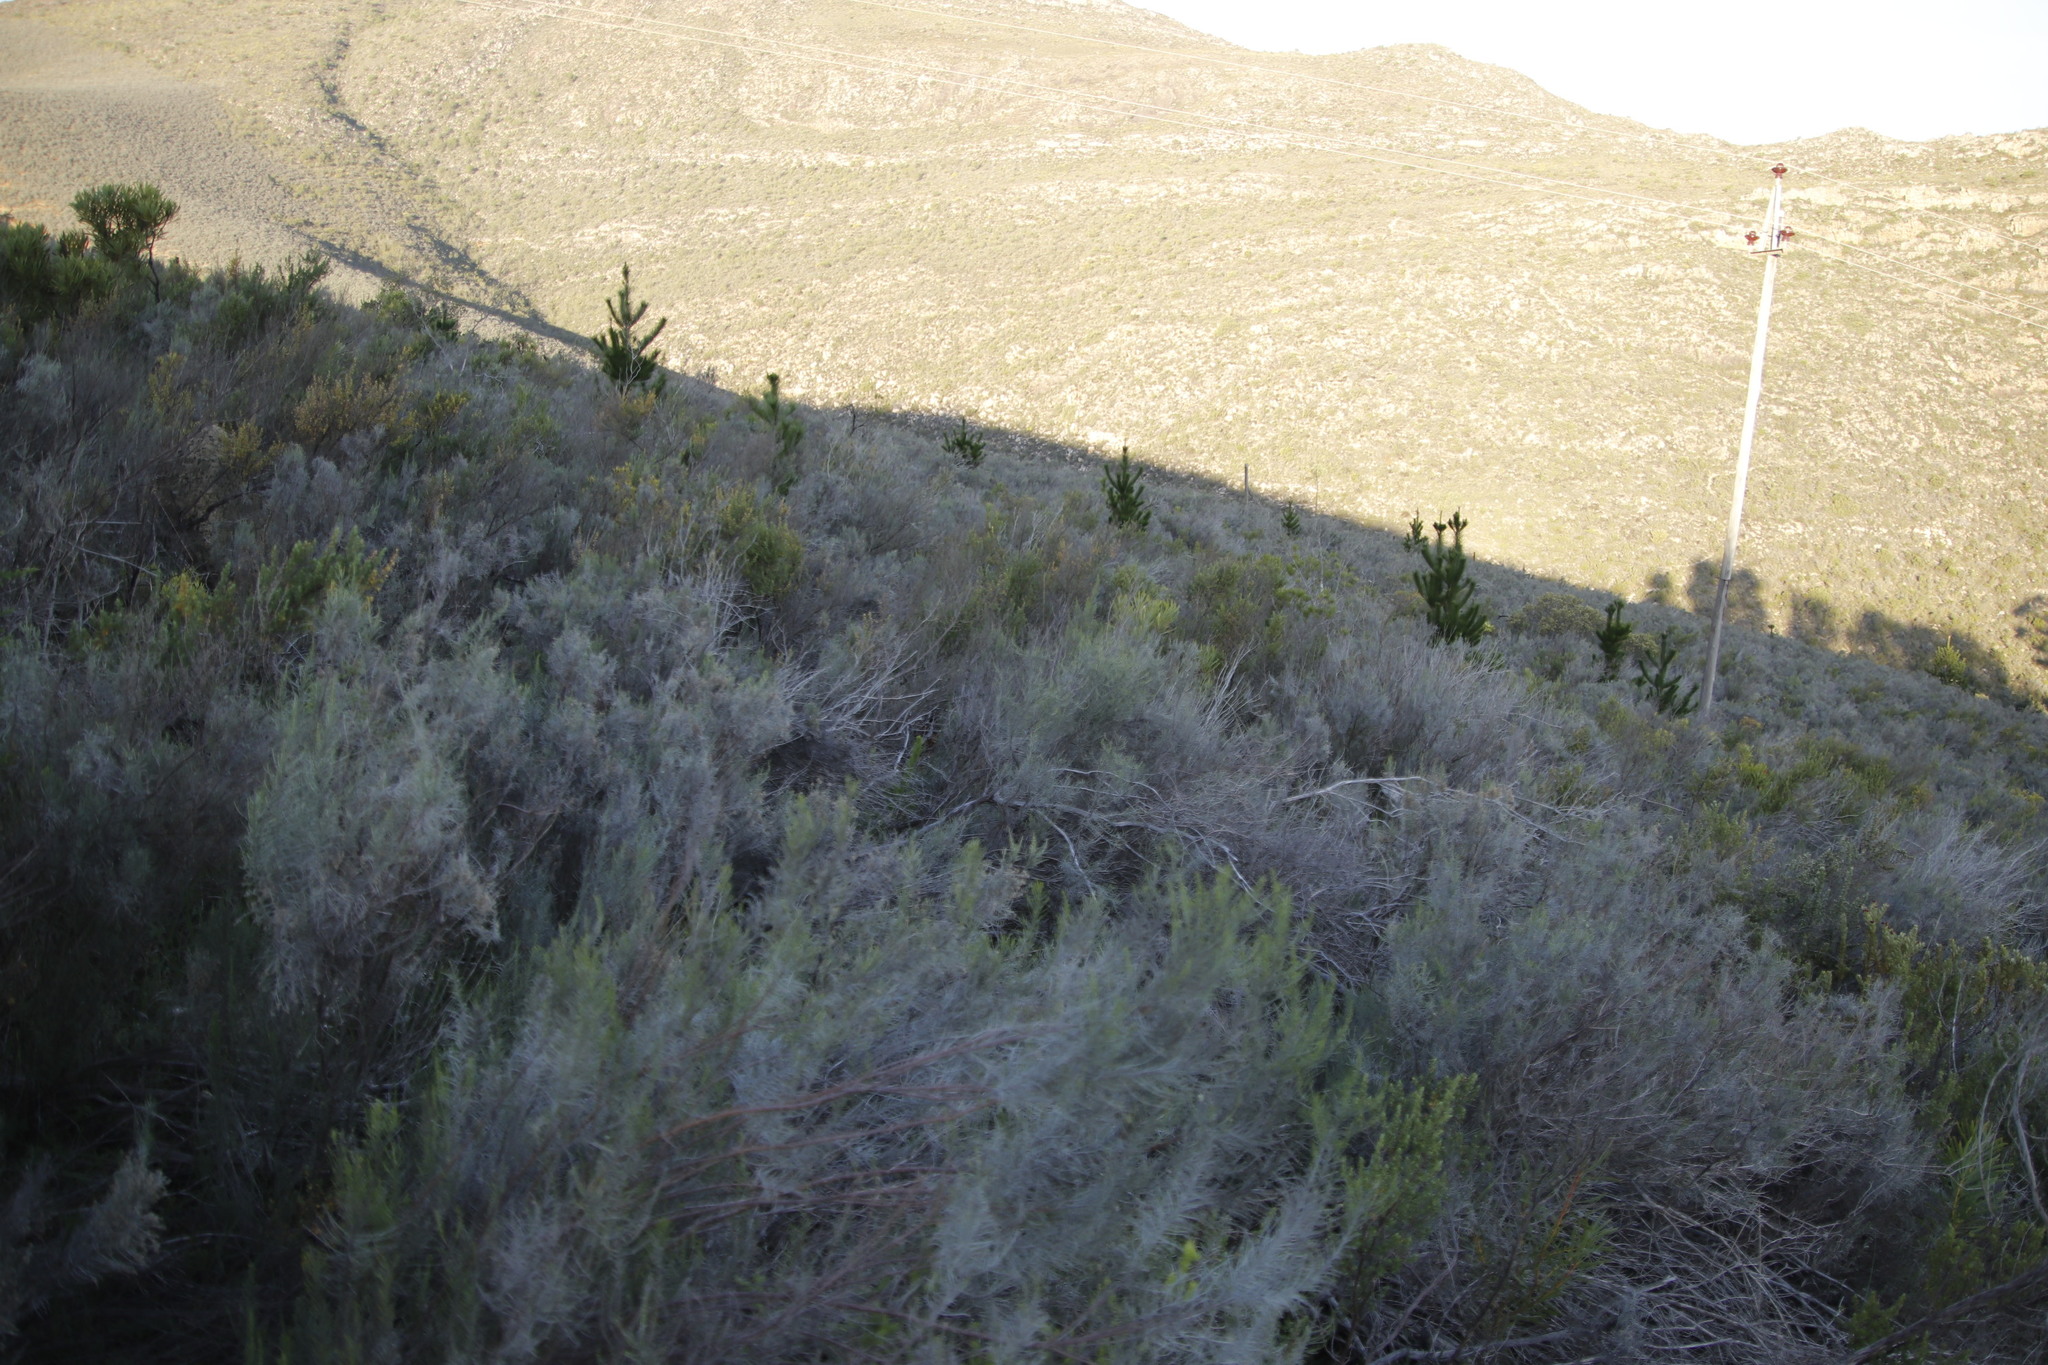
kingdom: Plantae
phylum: Tracheophyta
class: Magnoliopsida
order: Asterales
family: Asteraceae
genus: Dicerothamnus
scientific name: Dicerothamnus rhinocerotis
